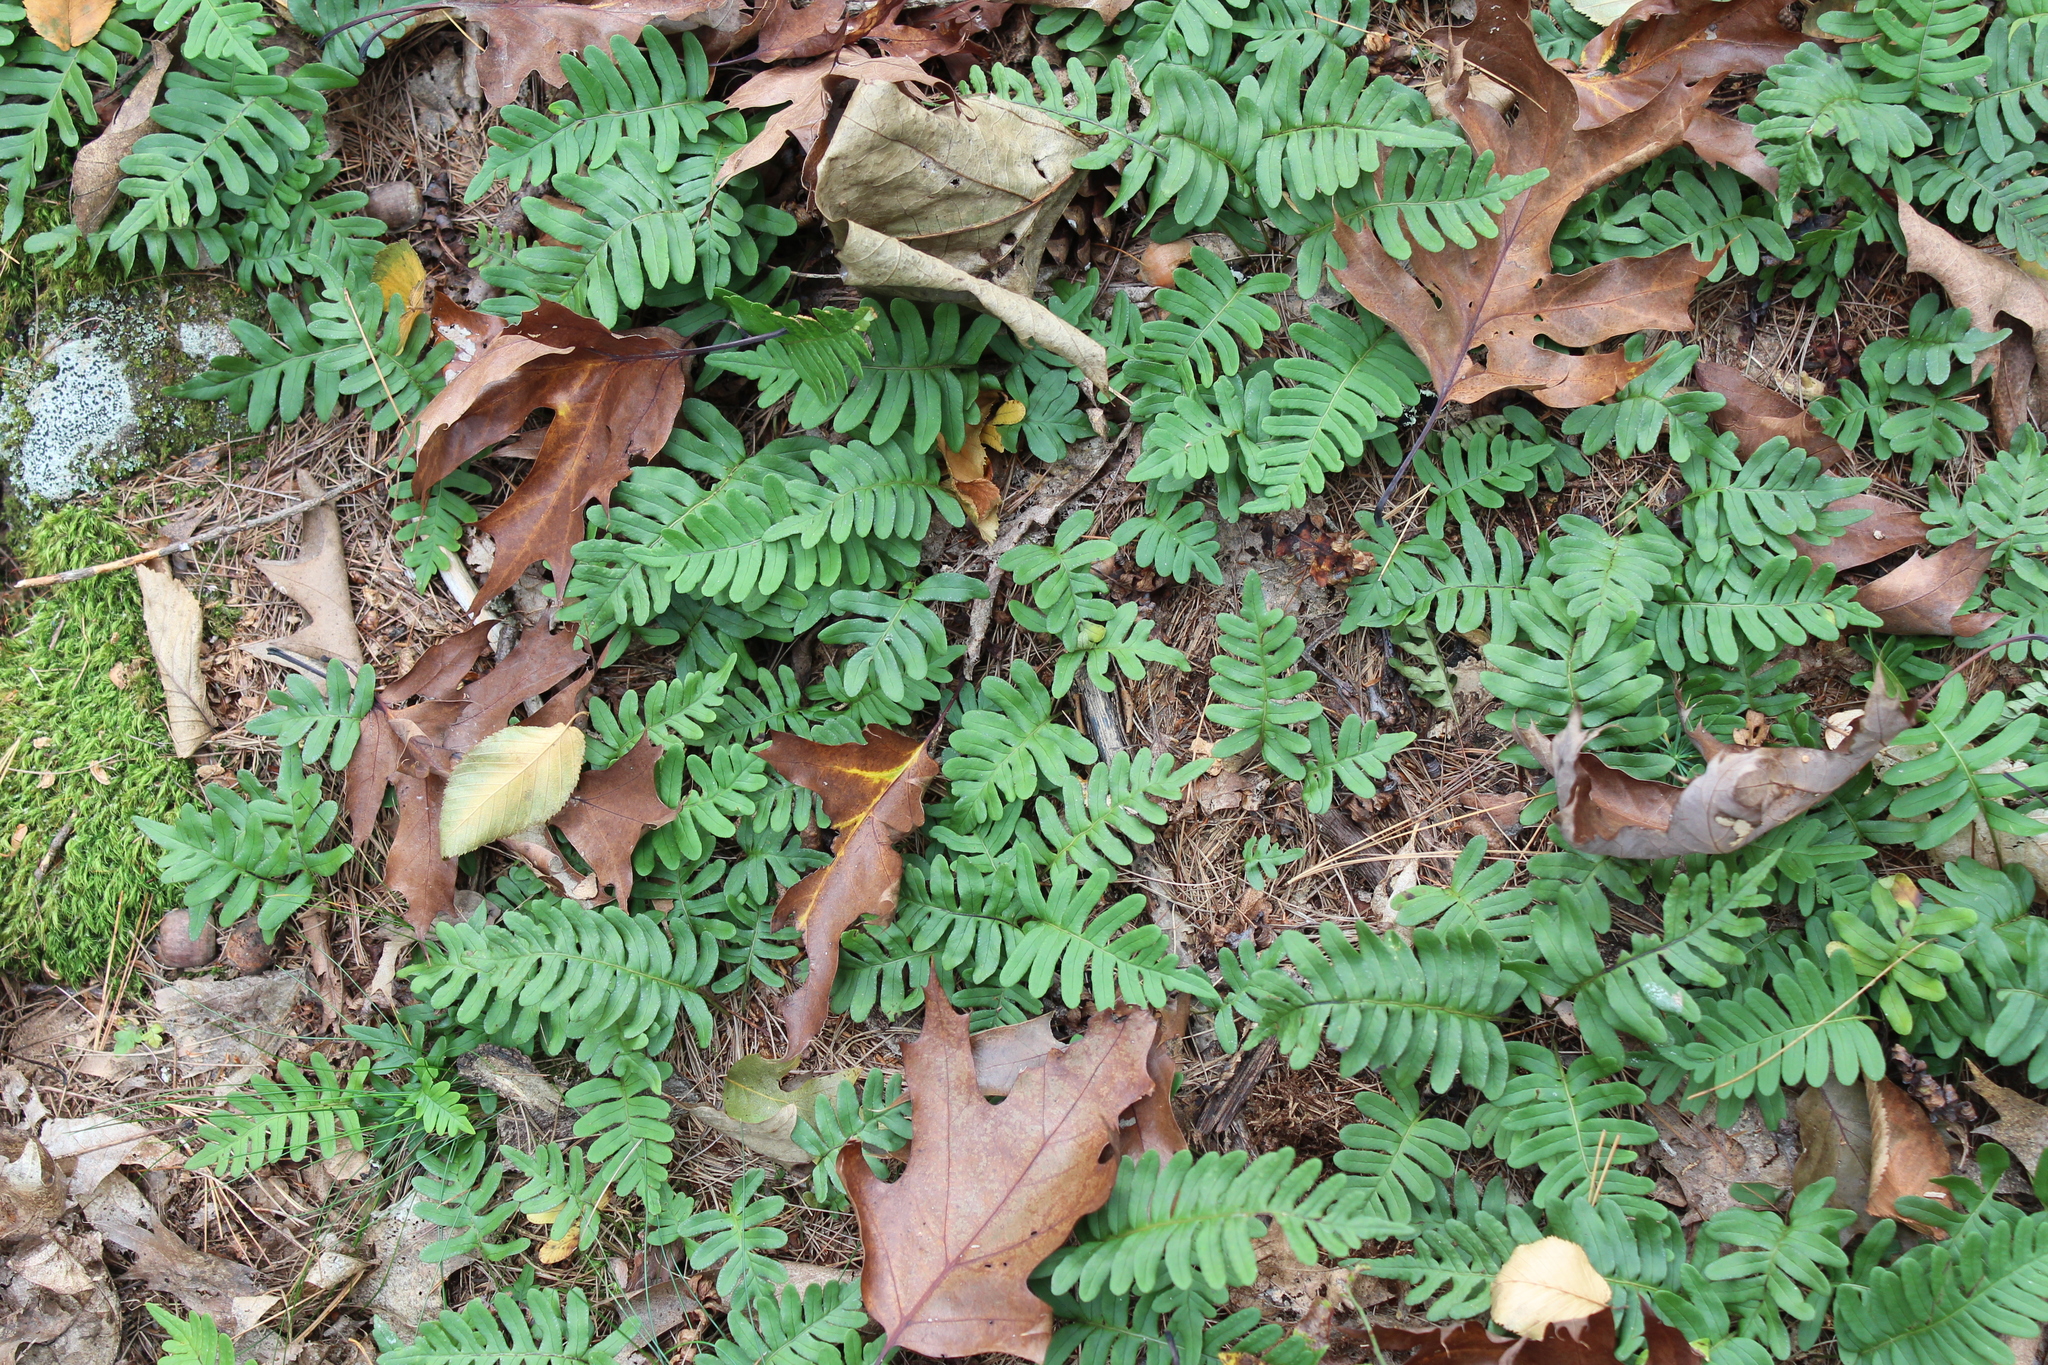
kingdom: Plantae
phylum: Tracheophyta
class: Polypodiopsida
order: Polypodiales
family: Polypodiaceae
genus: Polypodium
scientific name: Polypodium virginianum
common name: American wall fern
